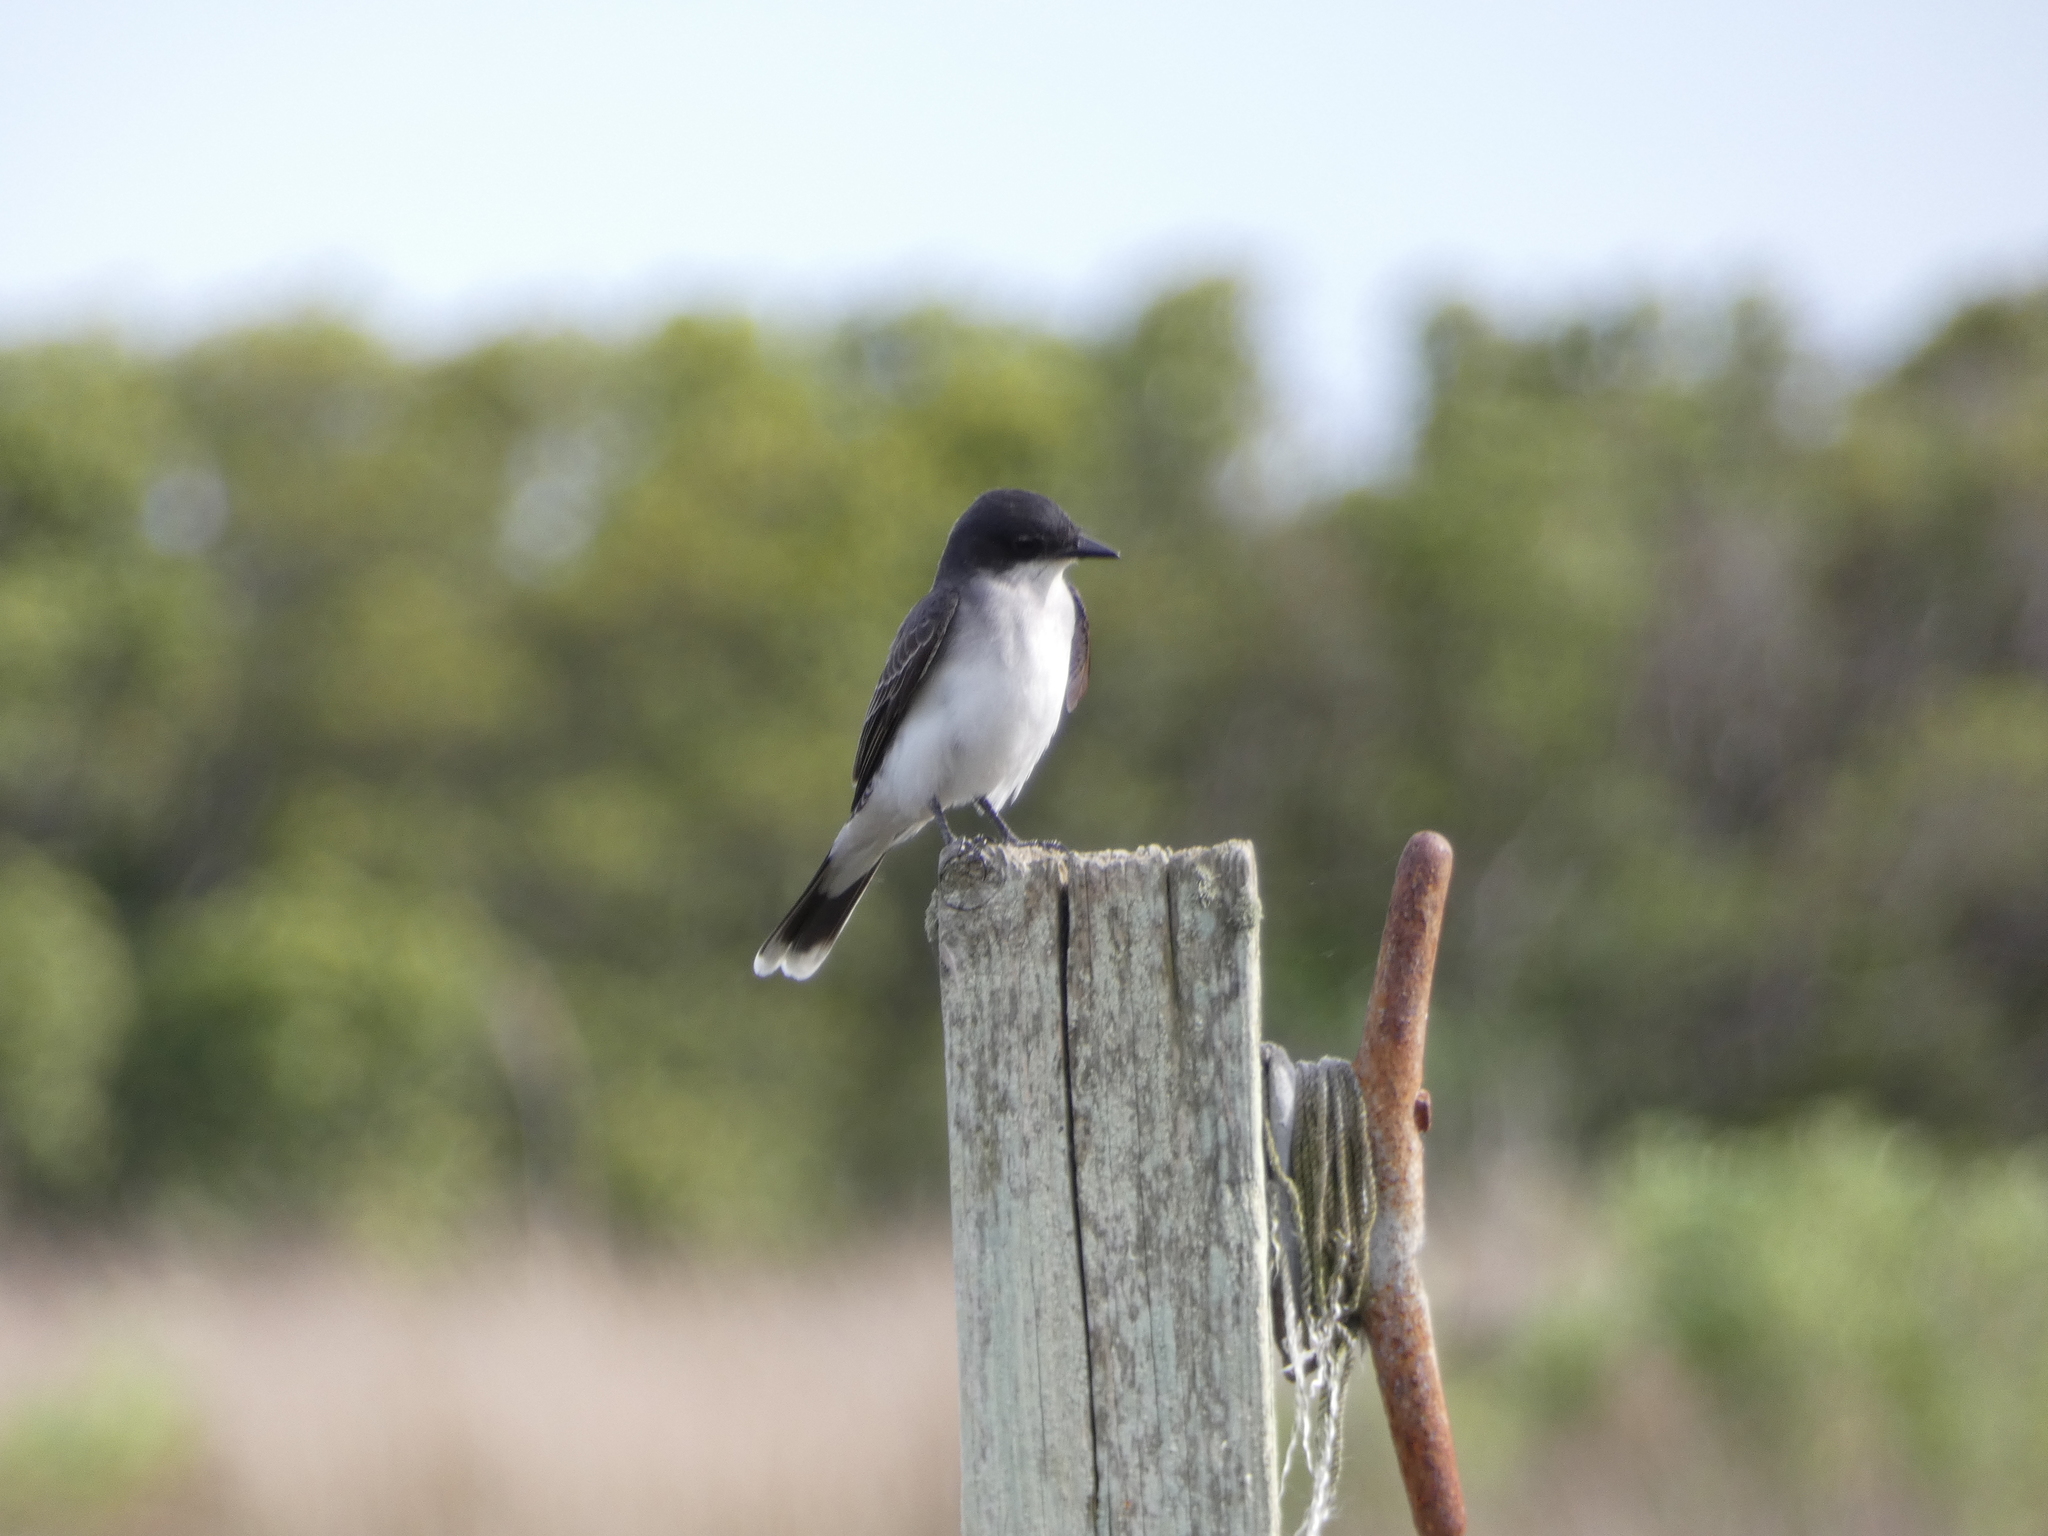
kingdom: Animalia
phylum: Chordata
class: Aves
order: Passeriformes
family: Tyrannidae
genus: Tyrannus
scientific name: Tyrannus tyrannus
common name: Eastern kingbird
